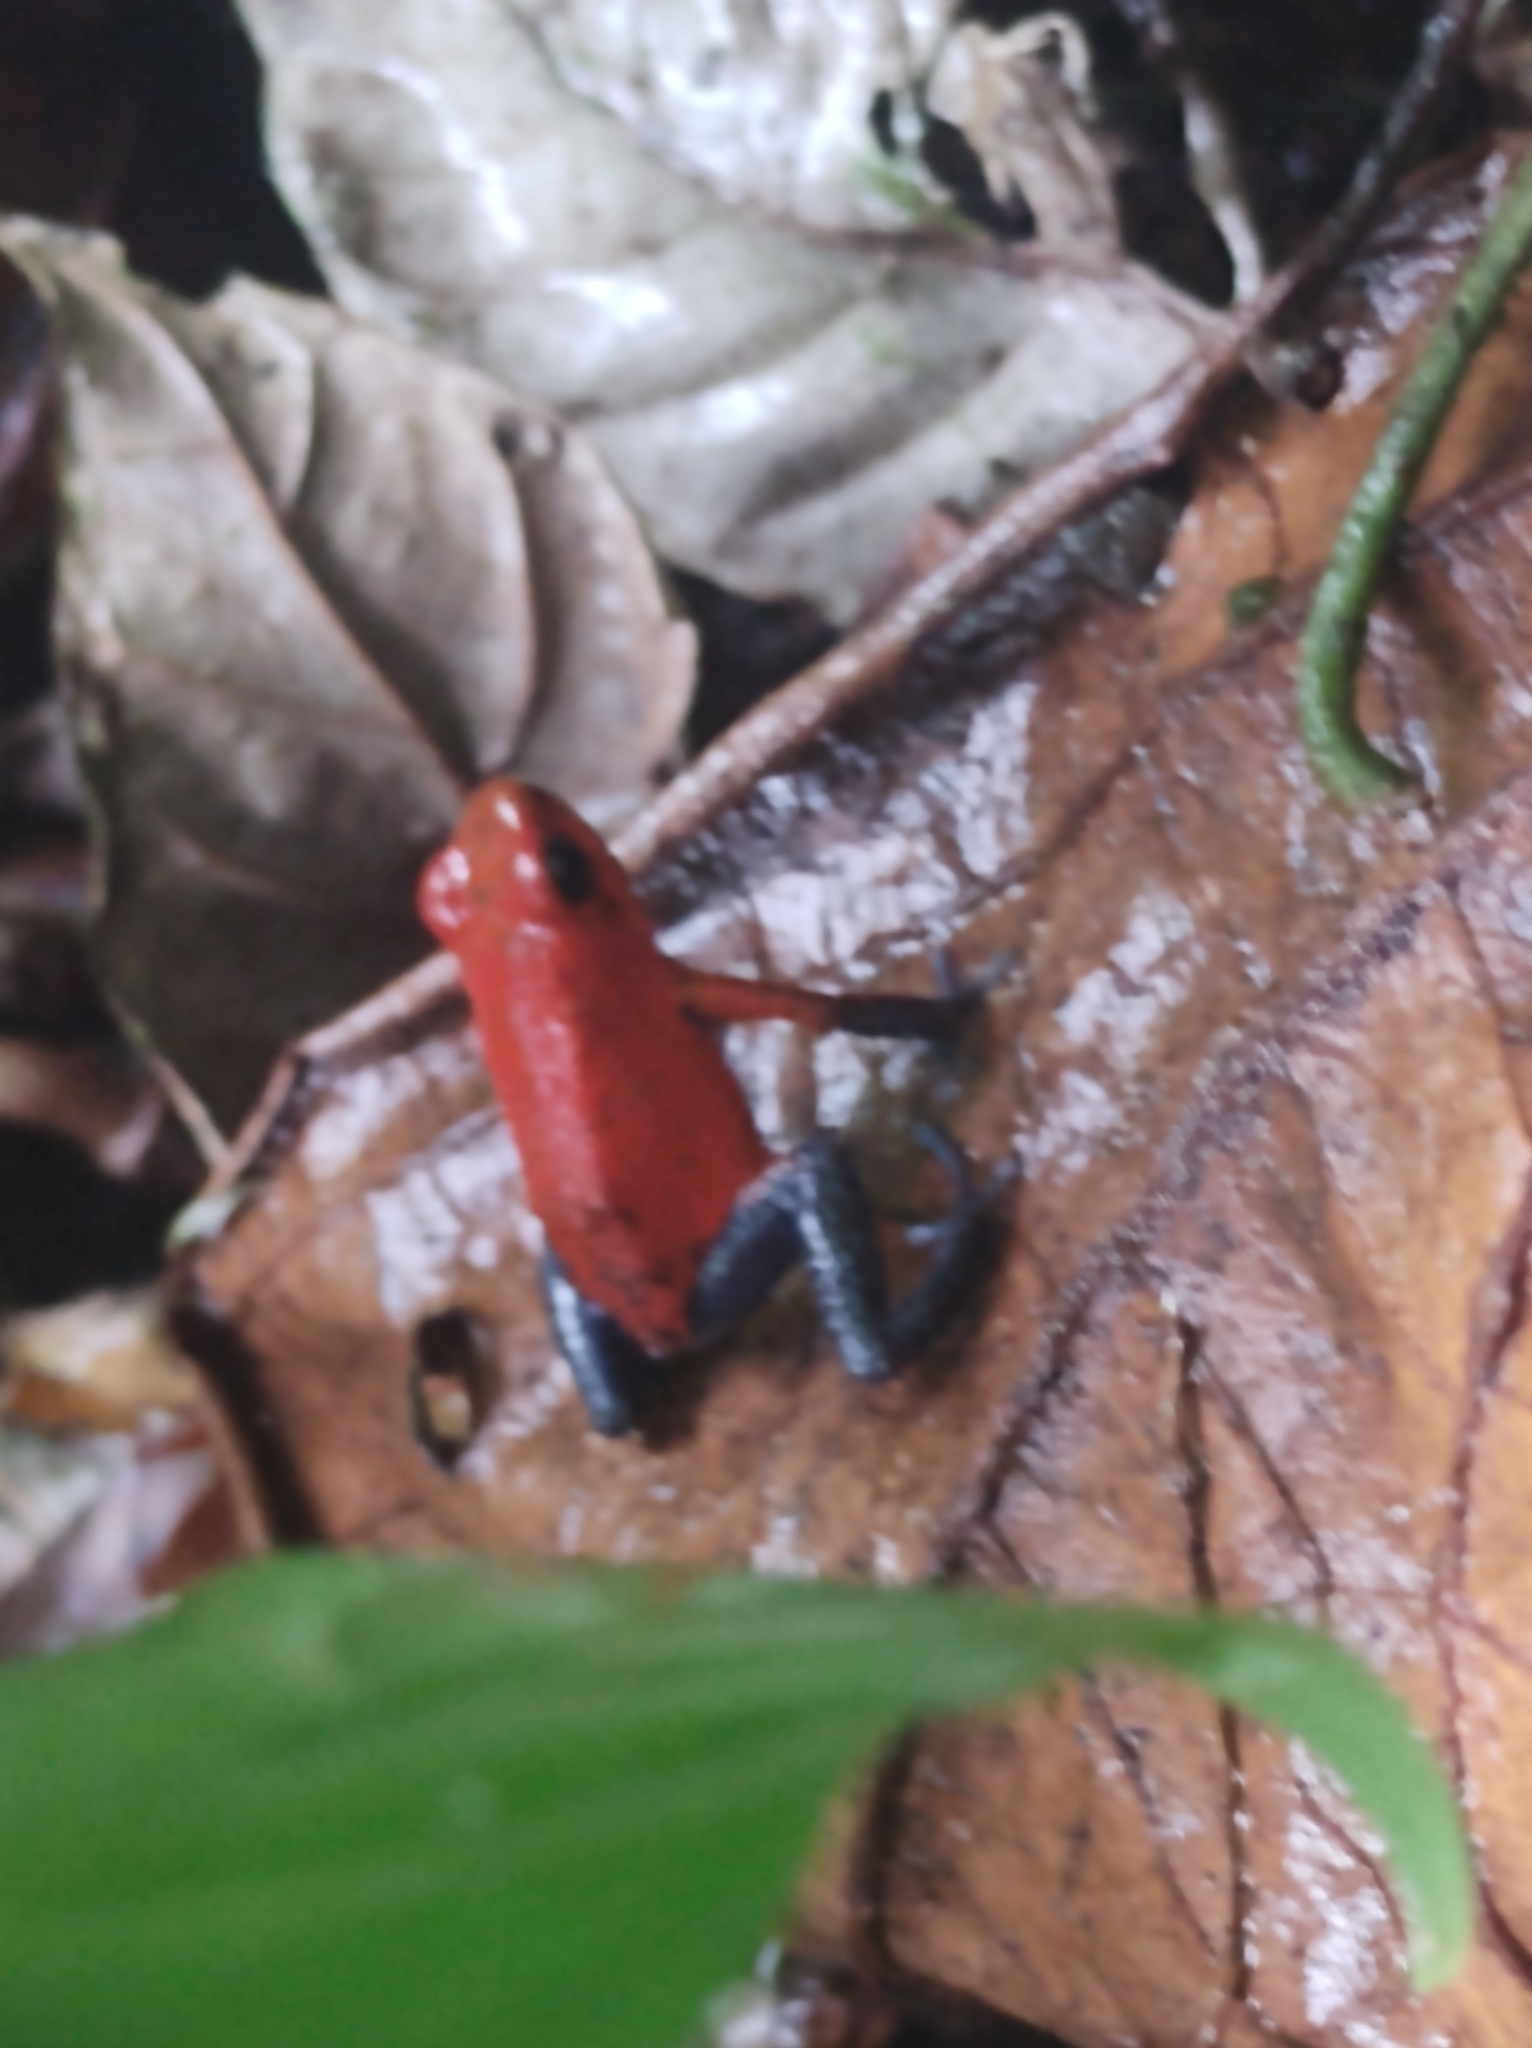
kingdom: Animalia
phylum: Chordata
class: Amphibia
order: Anura
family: Dendrobatidae
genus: Oophaga
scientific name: Oophaga pumilio
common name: Flaming poison frog
